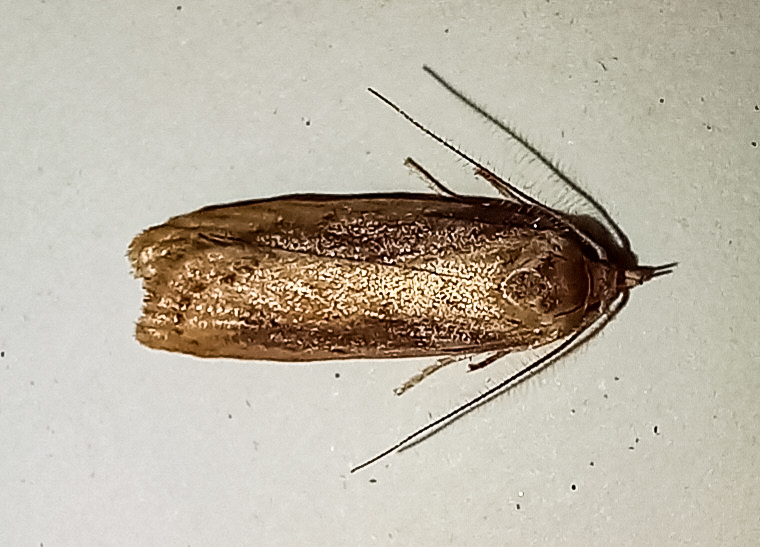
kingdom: Animalia
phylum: Arthropoda
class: Insecta
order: Lepidoptera
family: Depressariidae
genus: Agriophara
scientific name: Agriophara
